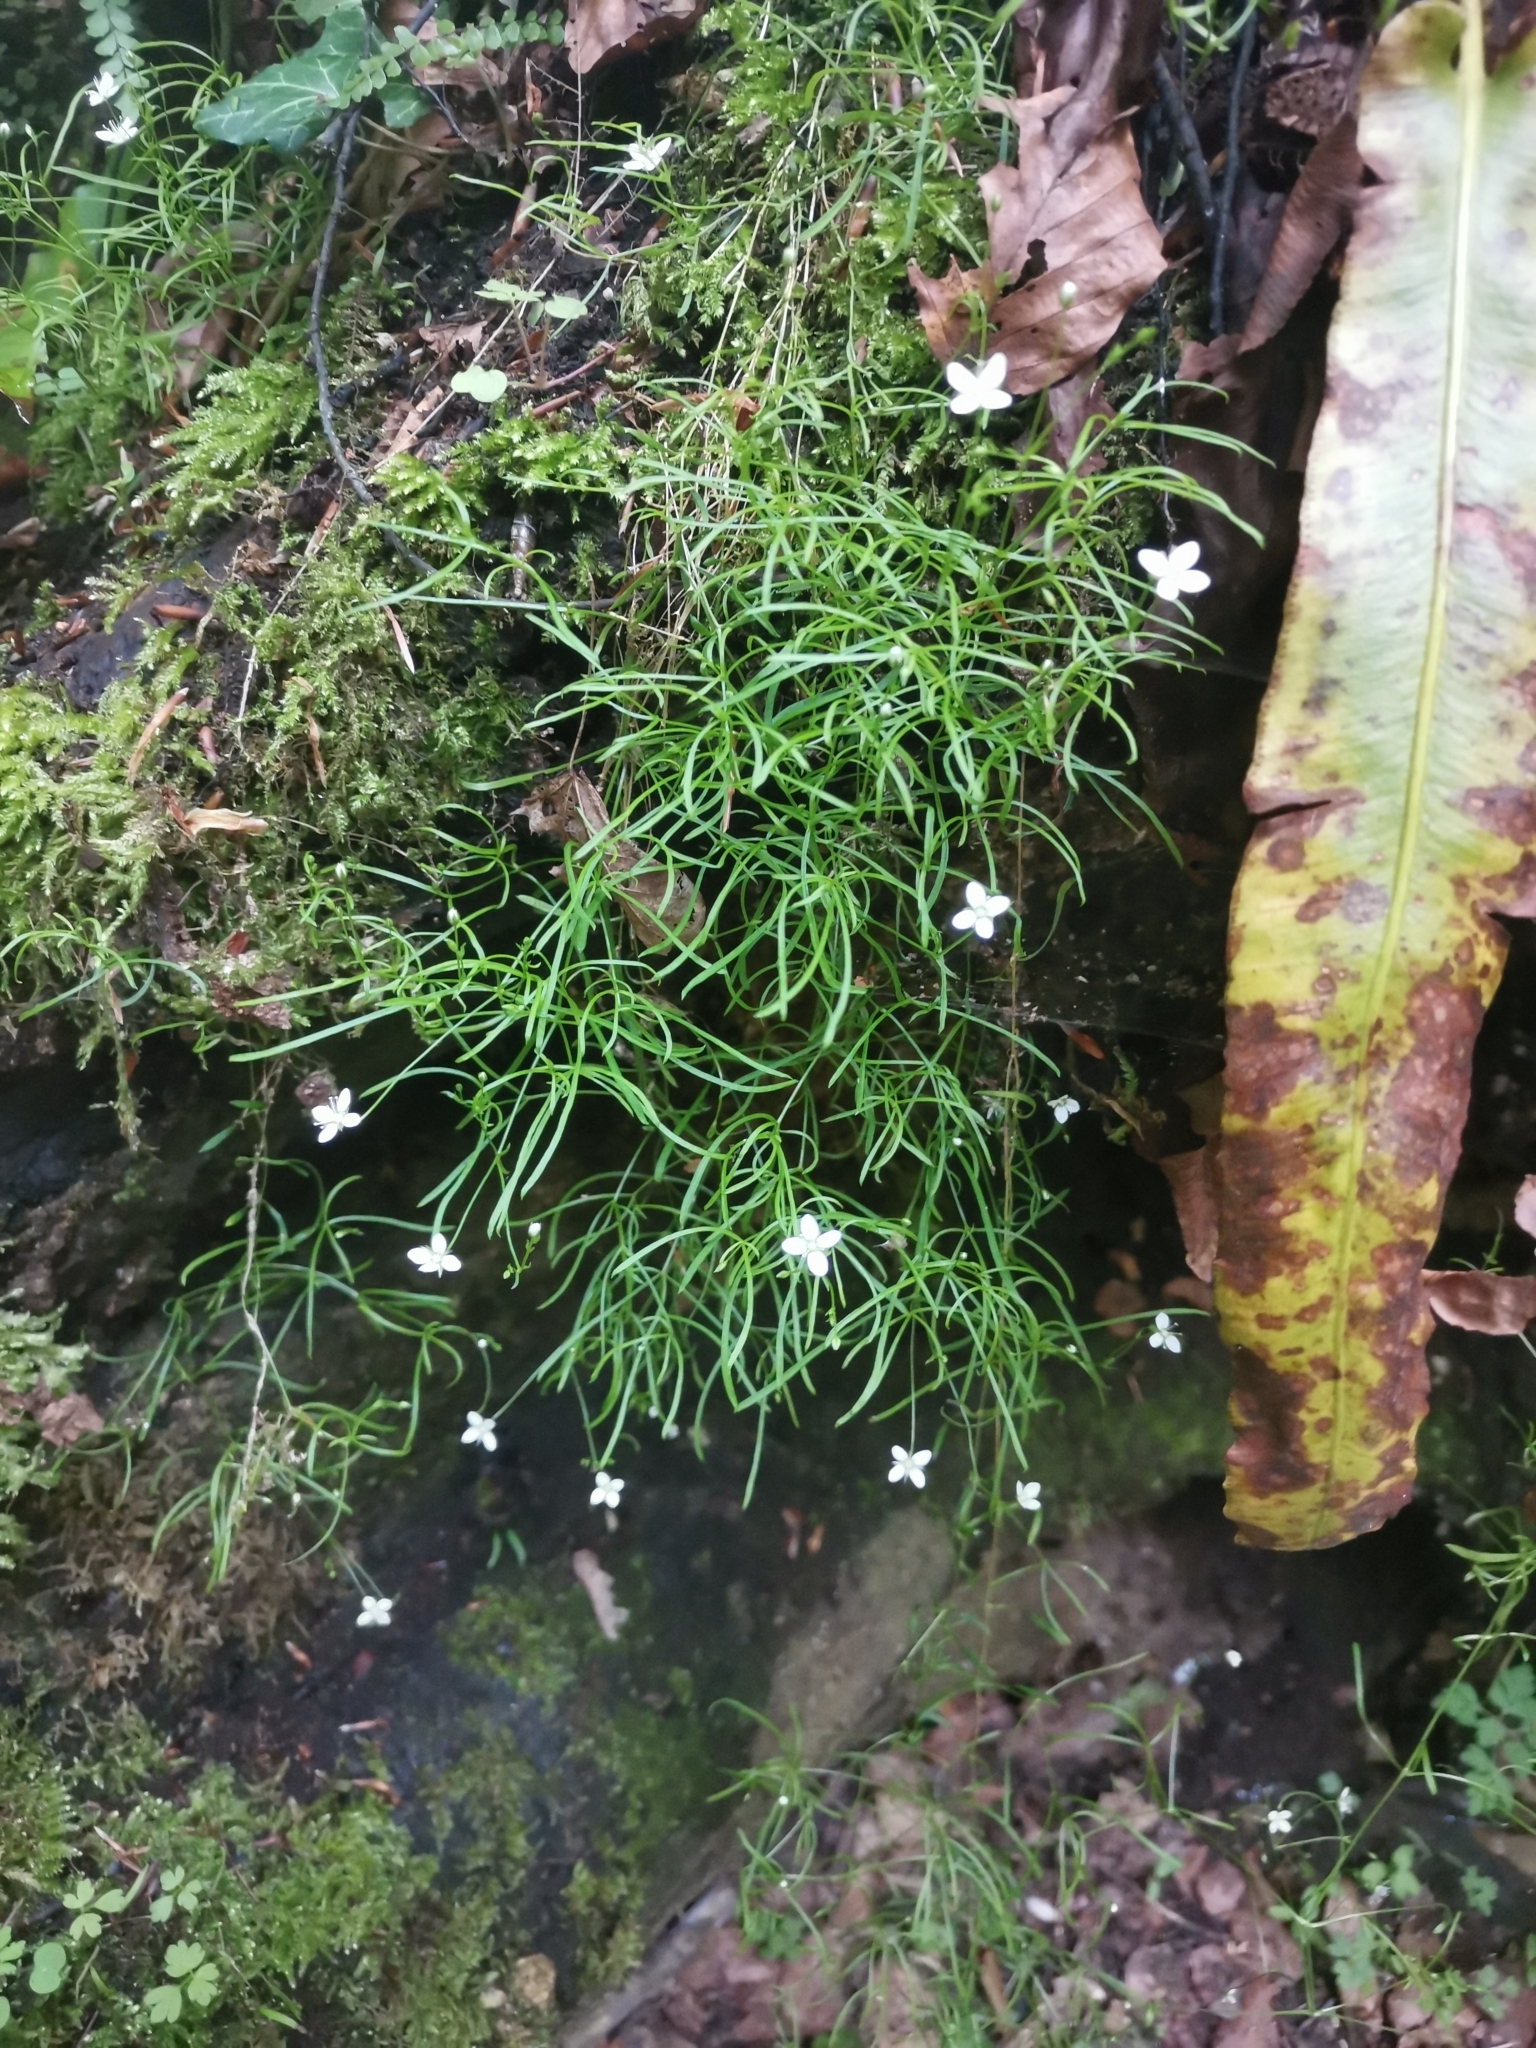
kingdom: Plantae
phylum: Tracheophyta
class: Magnoliopsida
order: Caryophyllales
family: Caryophyllaceae
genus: Moehringia
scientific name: Moehringia muscosa
